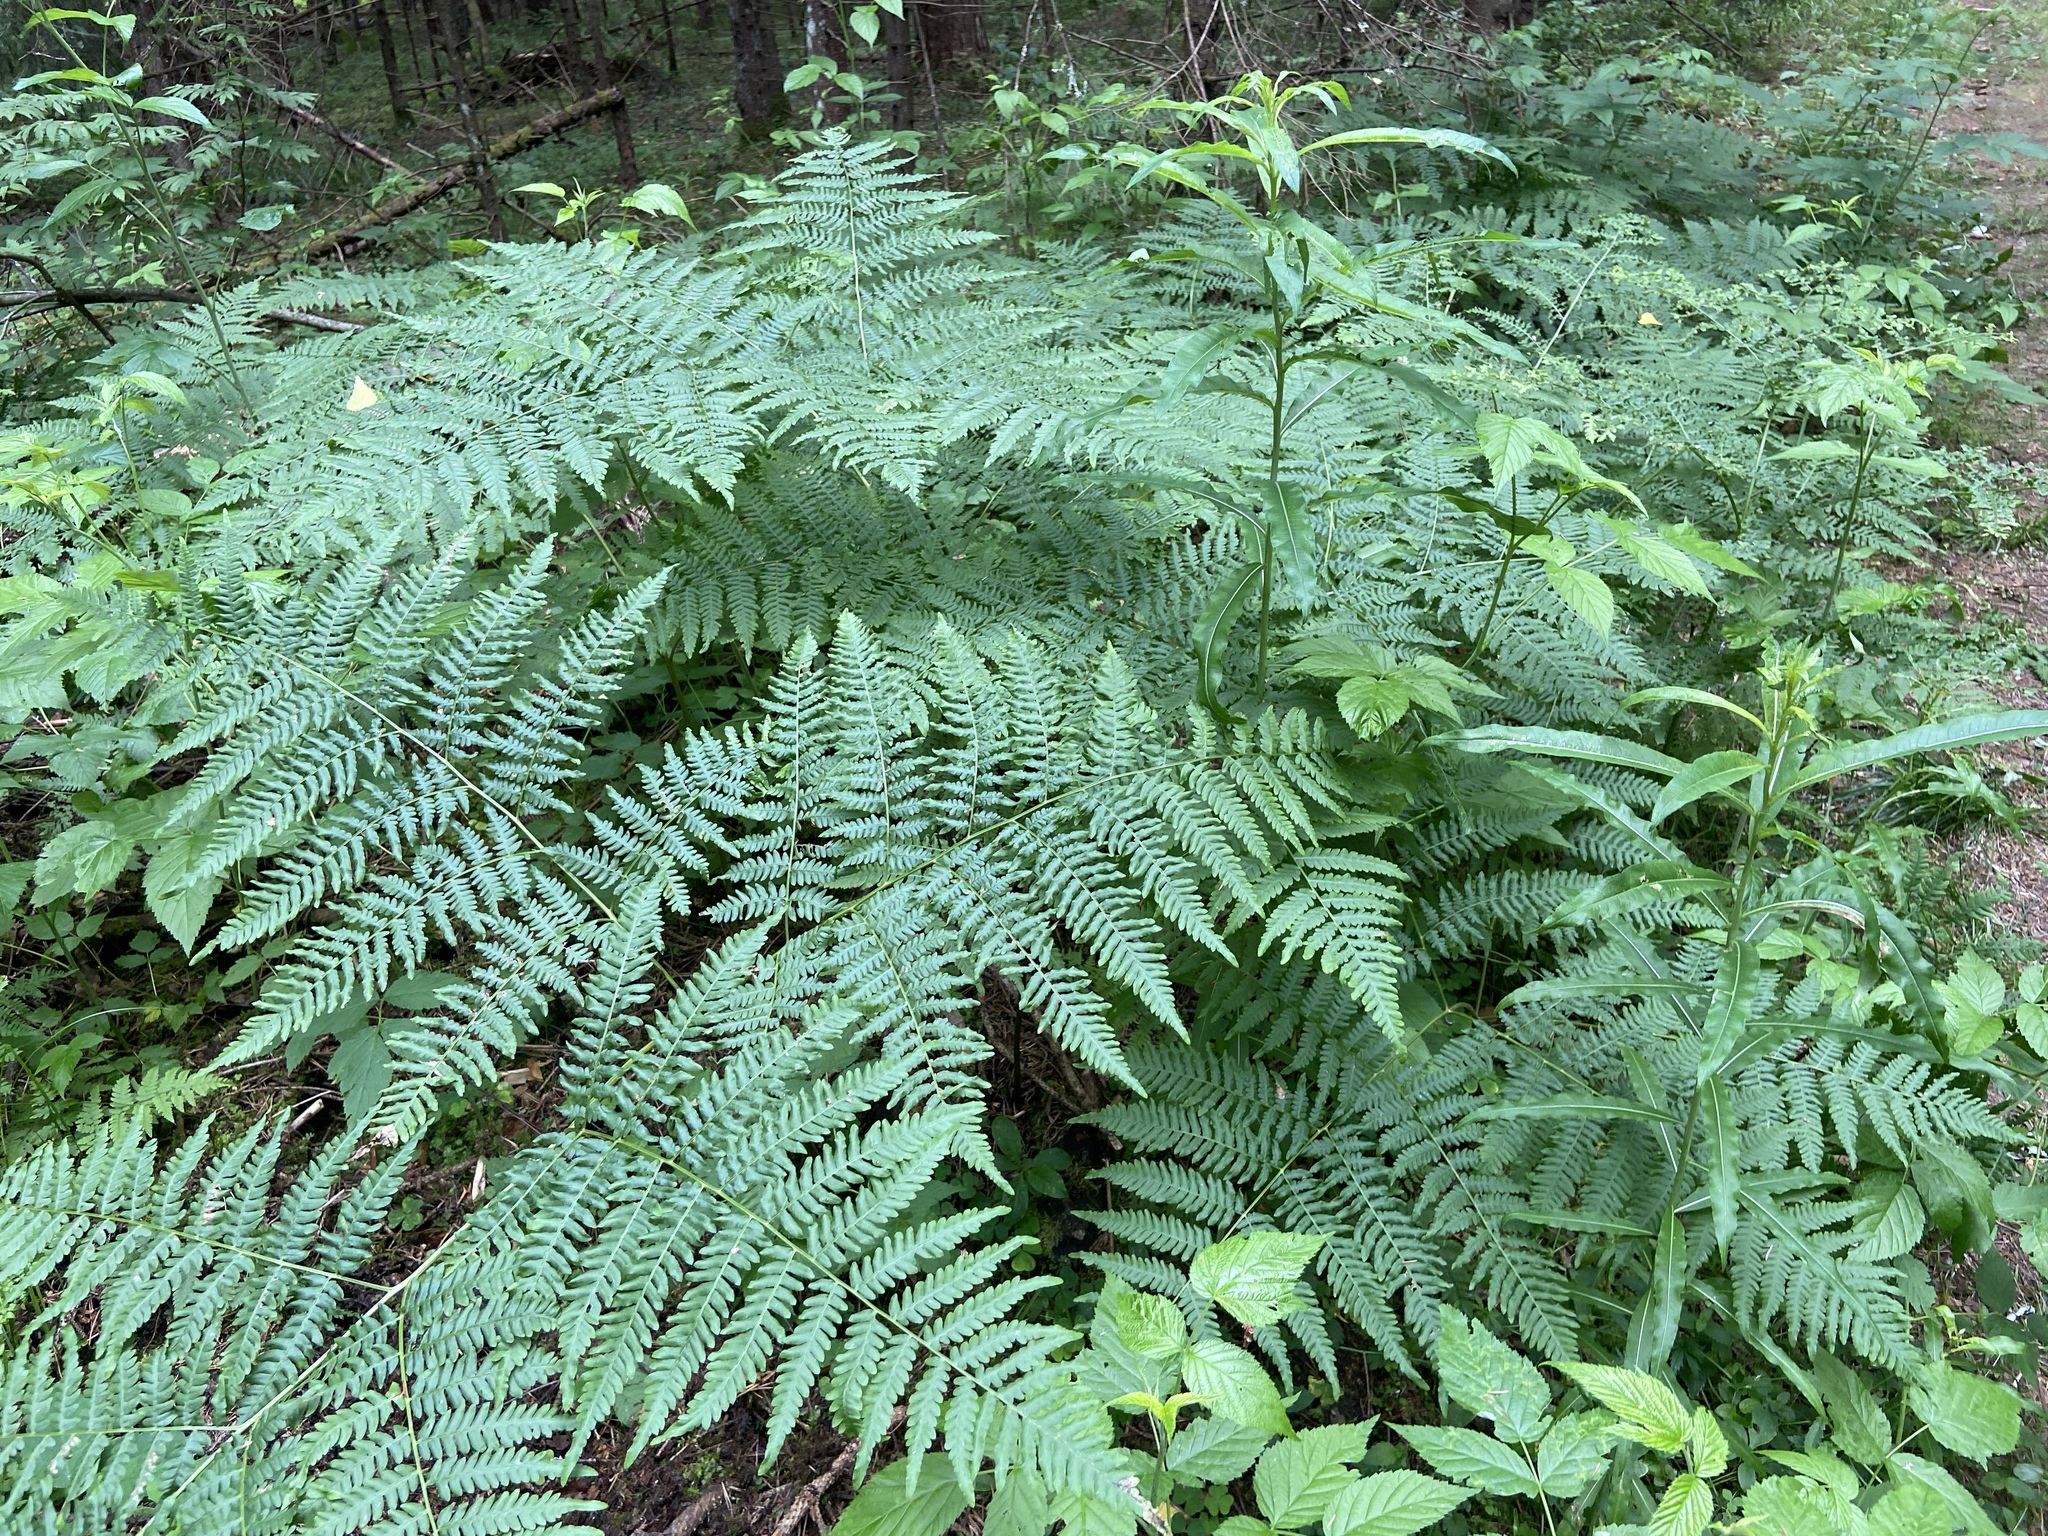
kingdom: Plantae
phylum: Tracheophyta
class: Polypodiopsida
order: Polypodiales
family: Dennstaedtiaceae
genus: Pteridium
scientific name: Pteridium aquilinum
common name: Bracken
